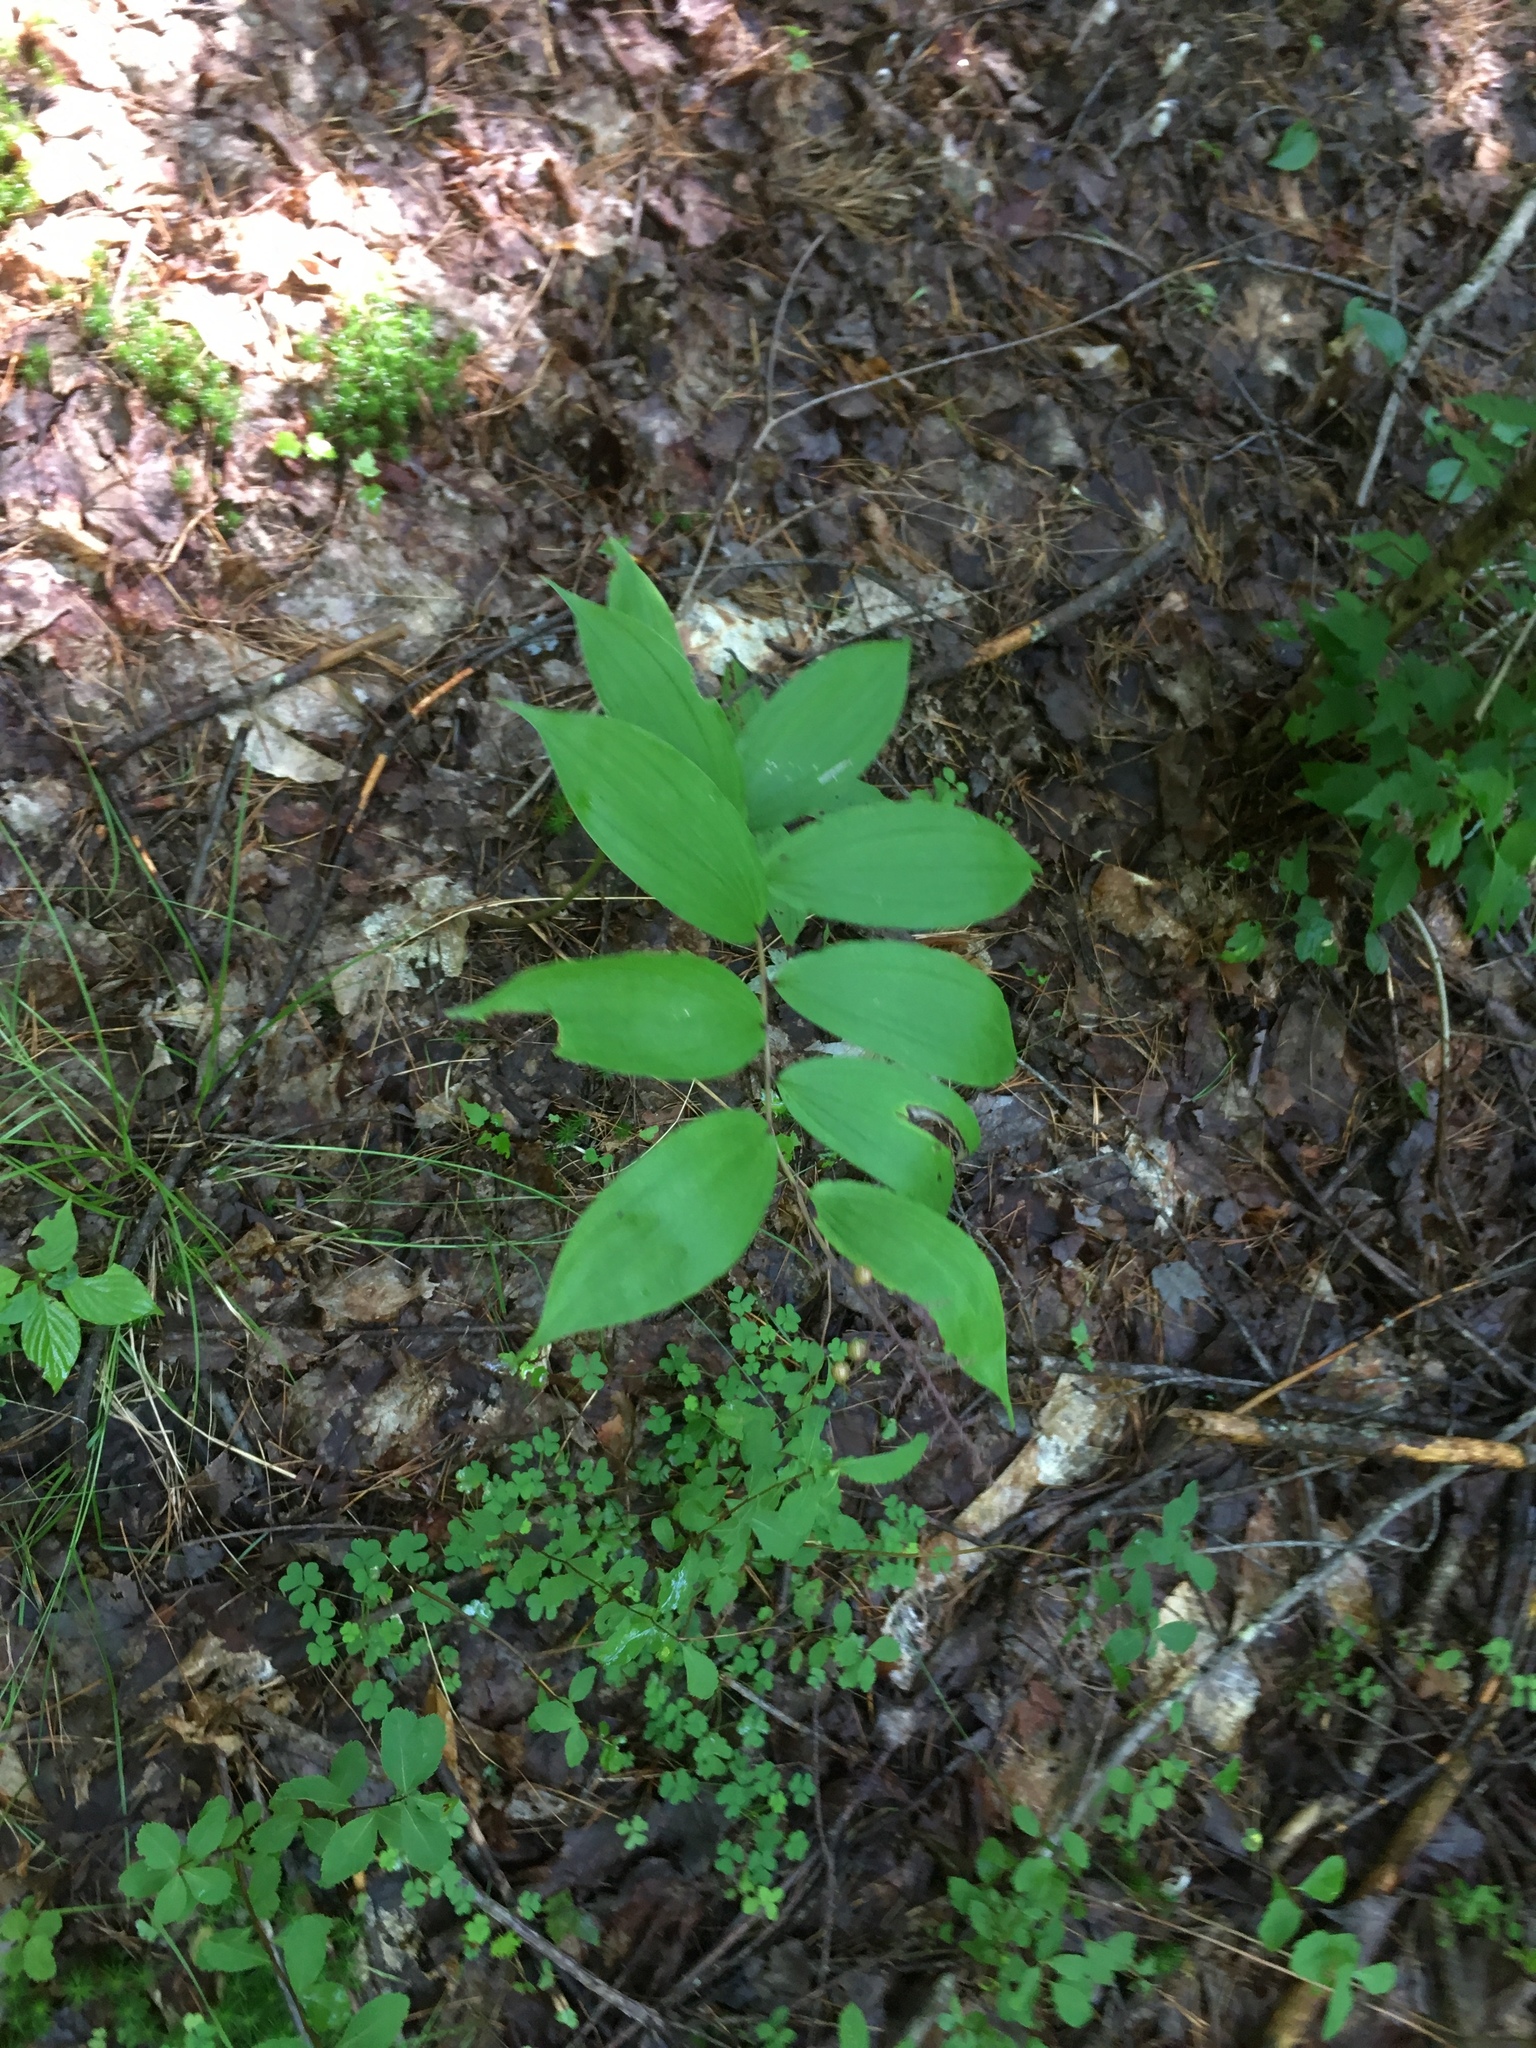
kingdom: Plantae
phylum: Tracheophyta
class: Liliopsida
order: Asparagales
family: Asparagaceae
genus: Maianthemum
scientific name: Maianthemum racemosum
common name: False spikenard
